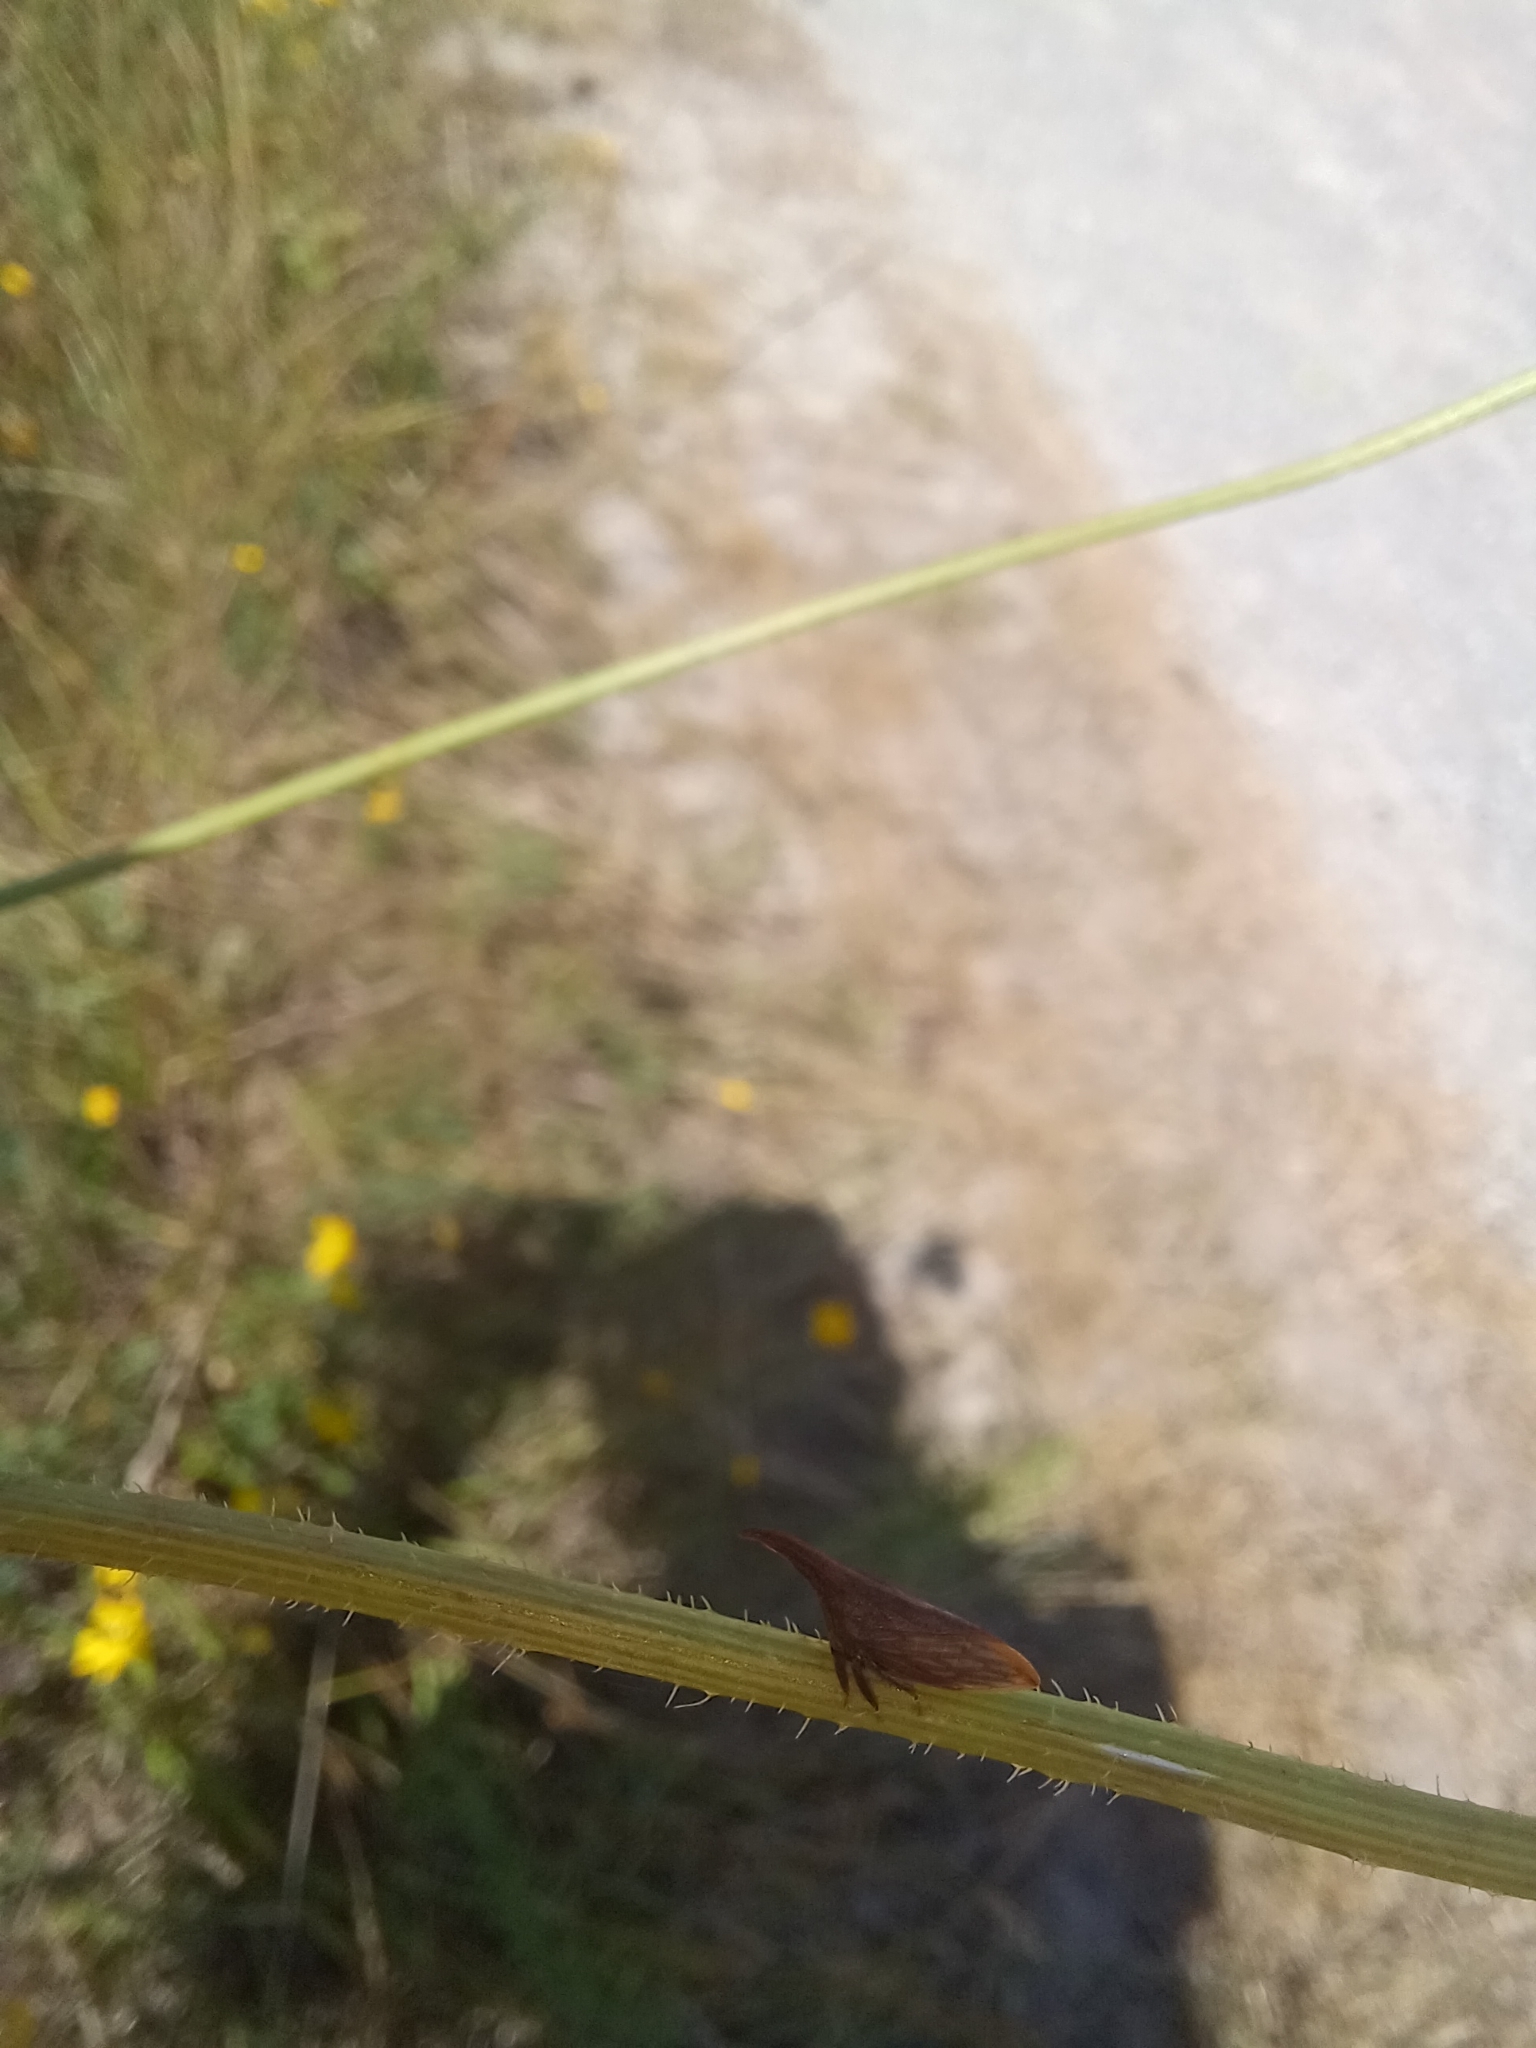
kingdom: Animalia
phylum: Arthropoda
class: Insecta
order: Hemiptera
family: Membracidae
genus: Enchenopa
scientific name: Enchenopa latipes
